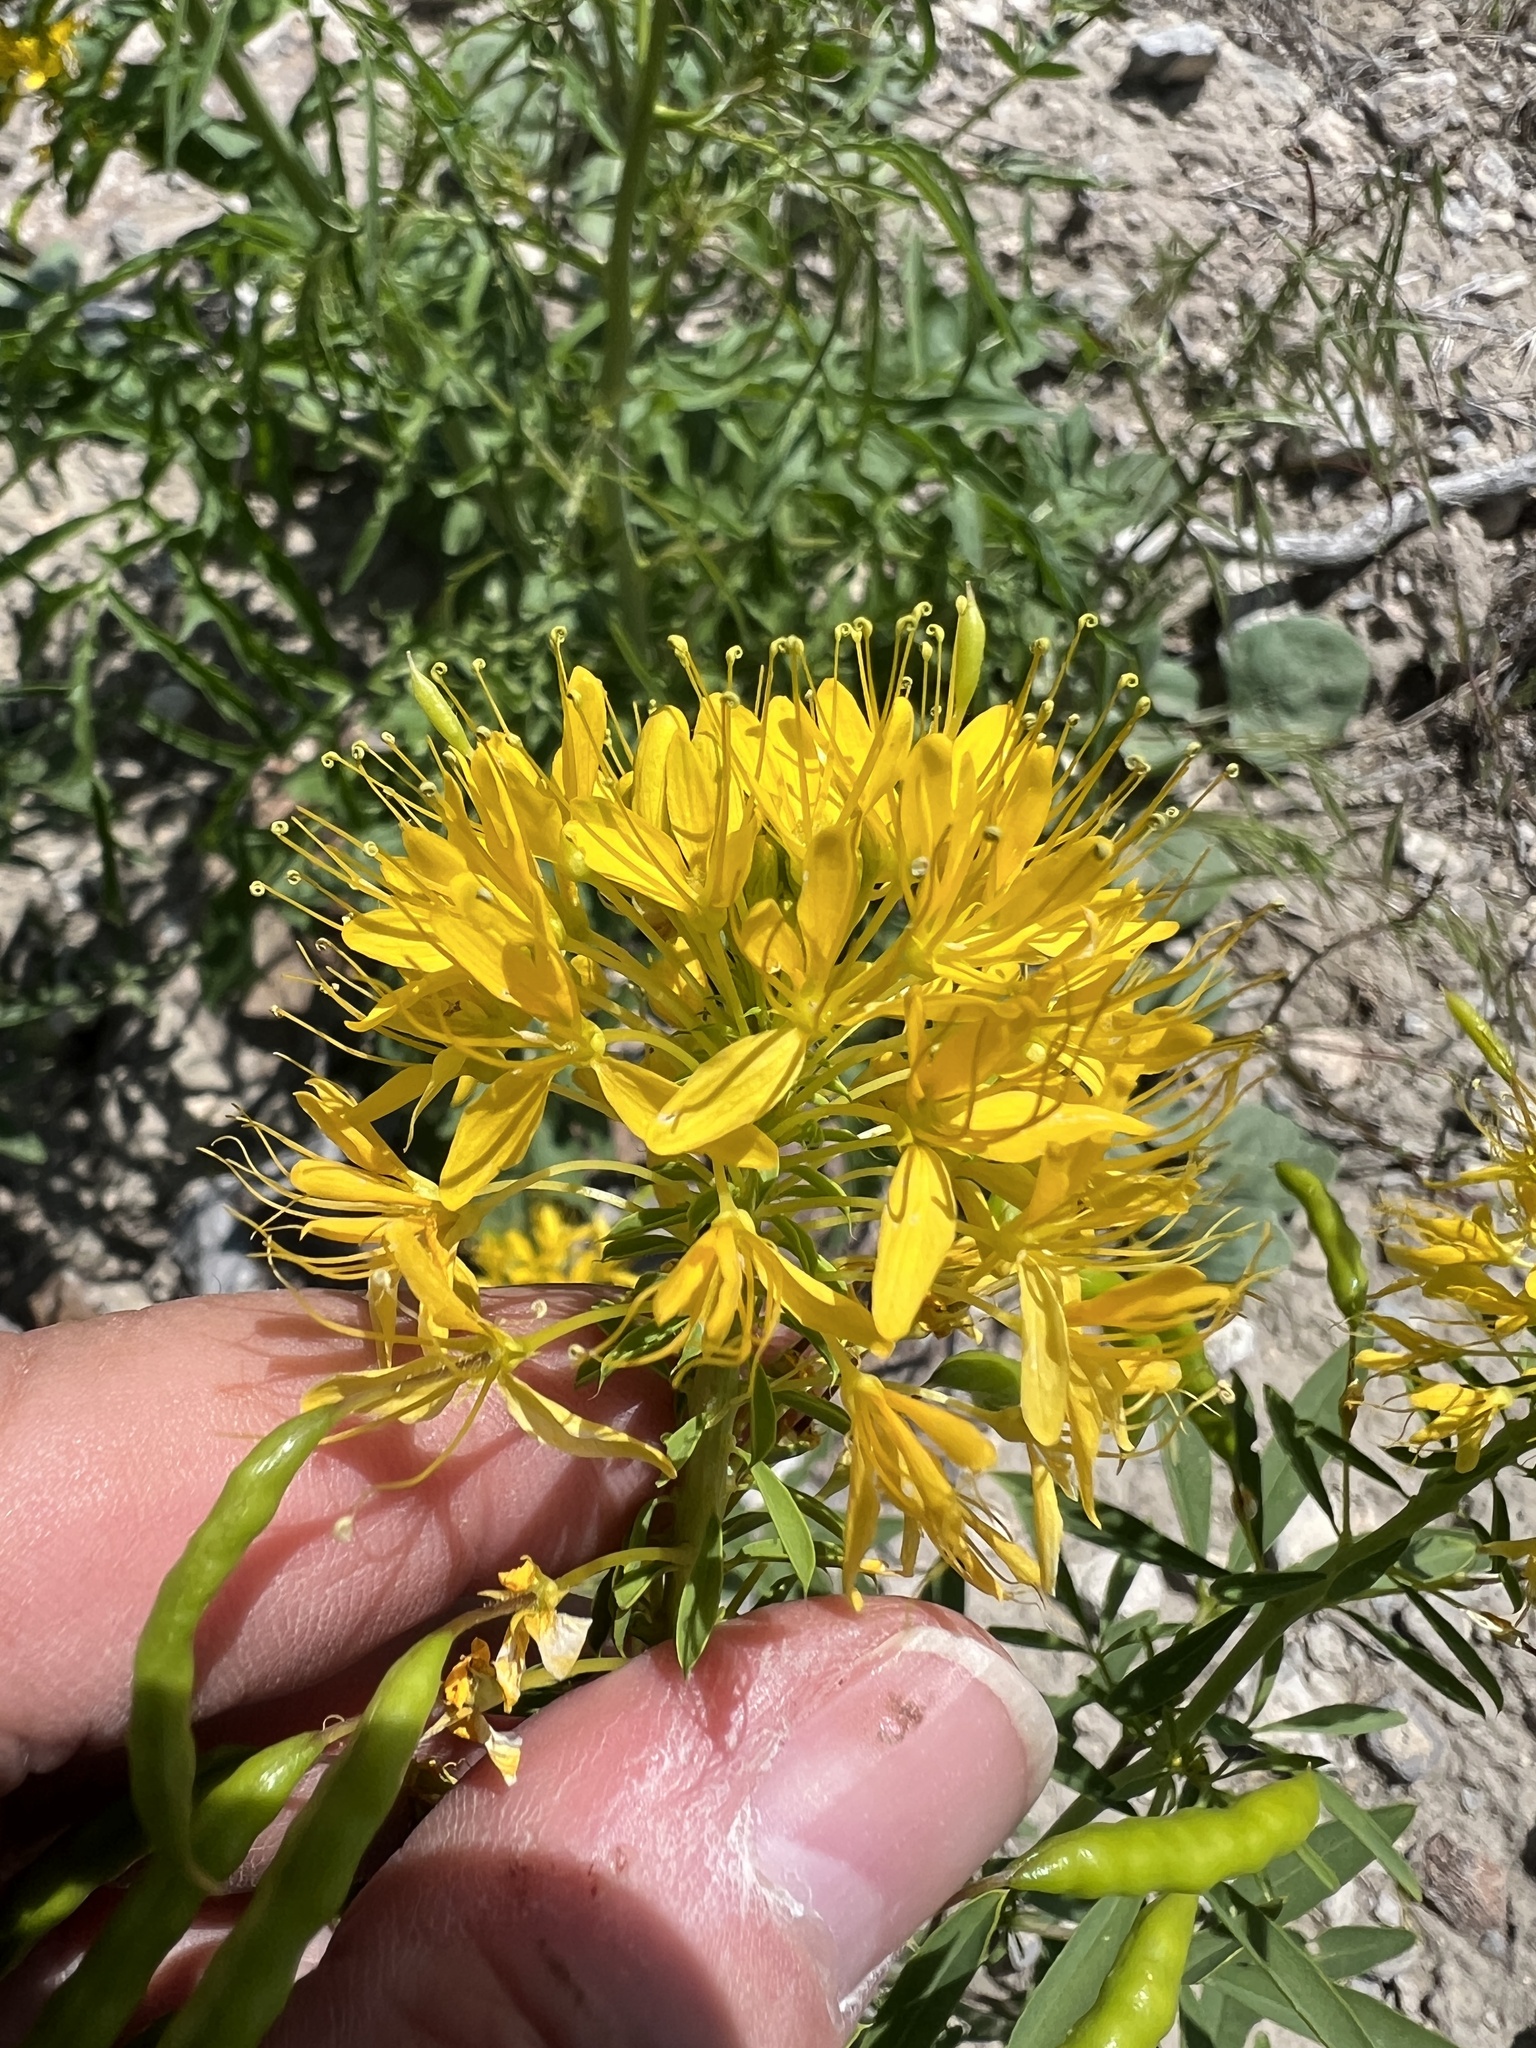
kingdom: Plantae
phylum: Tracheophyta
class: Magnoliopsida
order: Brassicales
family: Cleomaceae
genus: Cleomella
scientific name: Cleomella lutea
